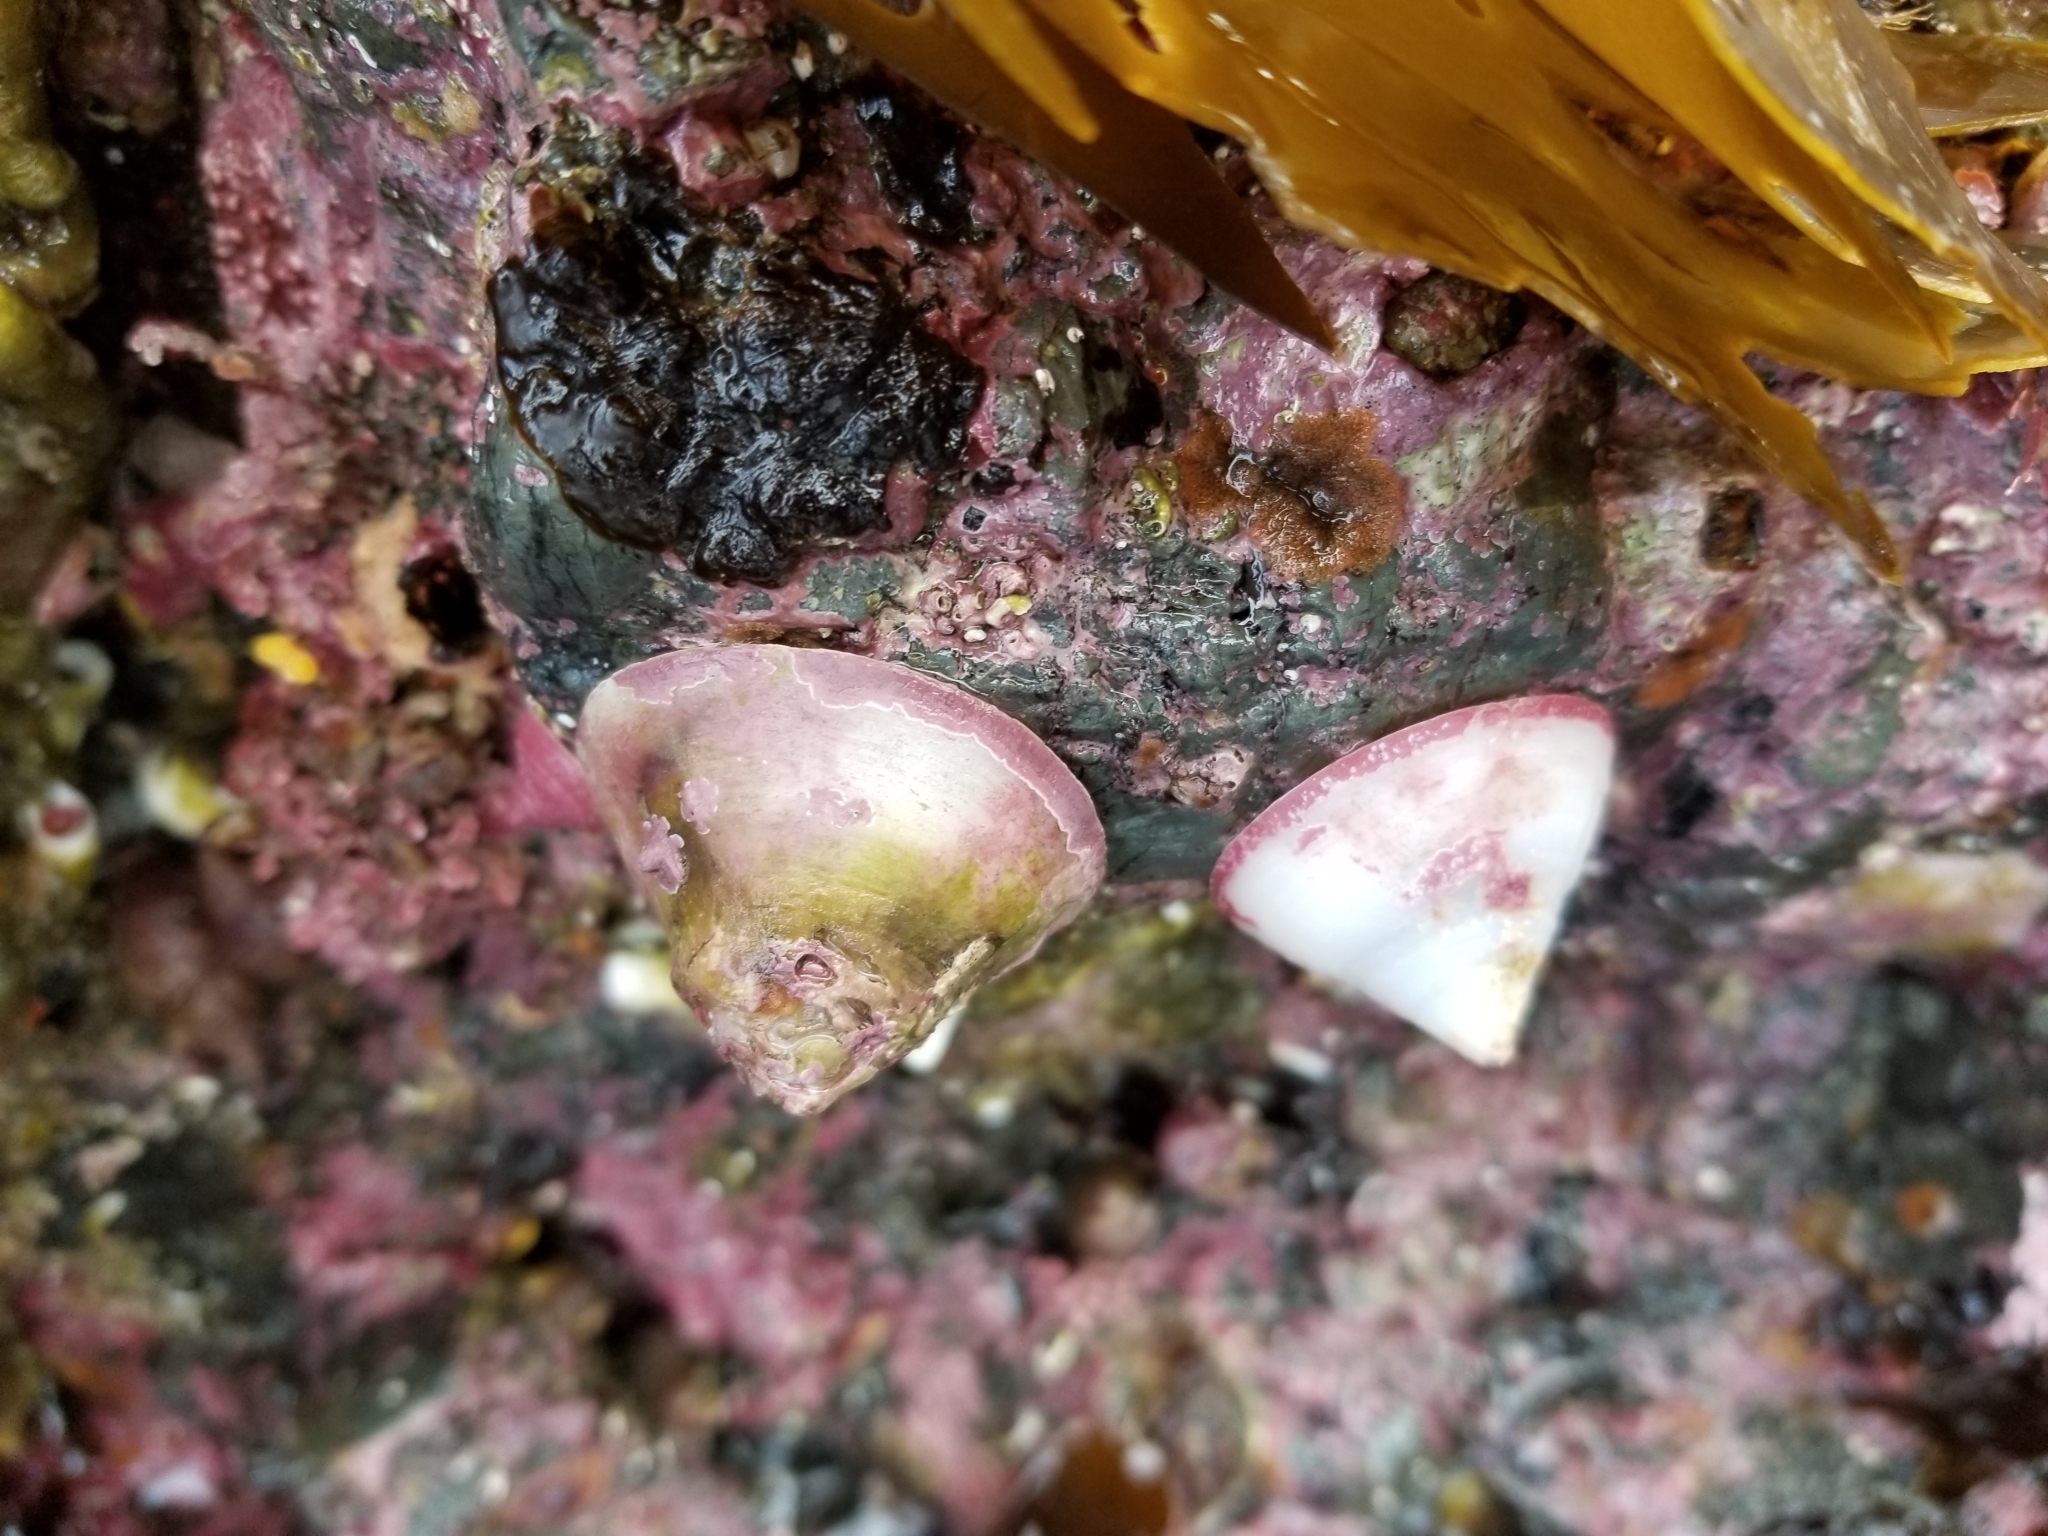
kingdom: Animalia
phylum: Mollusca
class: Gastropoda
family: Acmaeidae
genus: Acmaea
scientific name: Acmaea mitra
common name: Pacific white cap limpet
